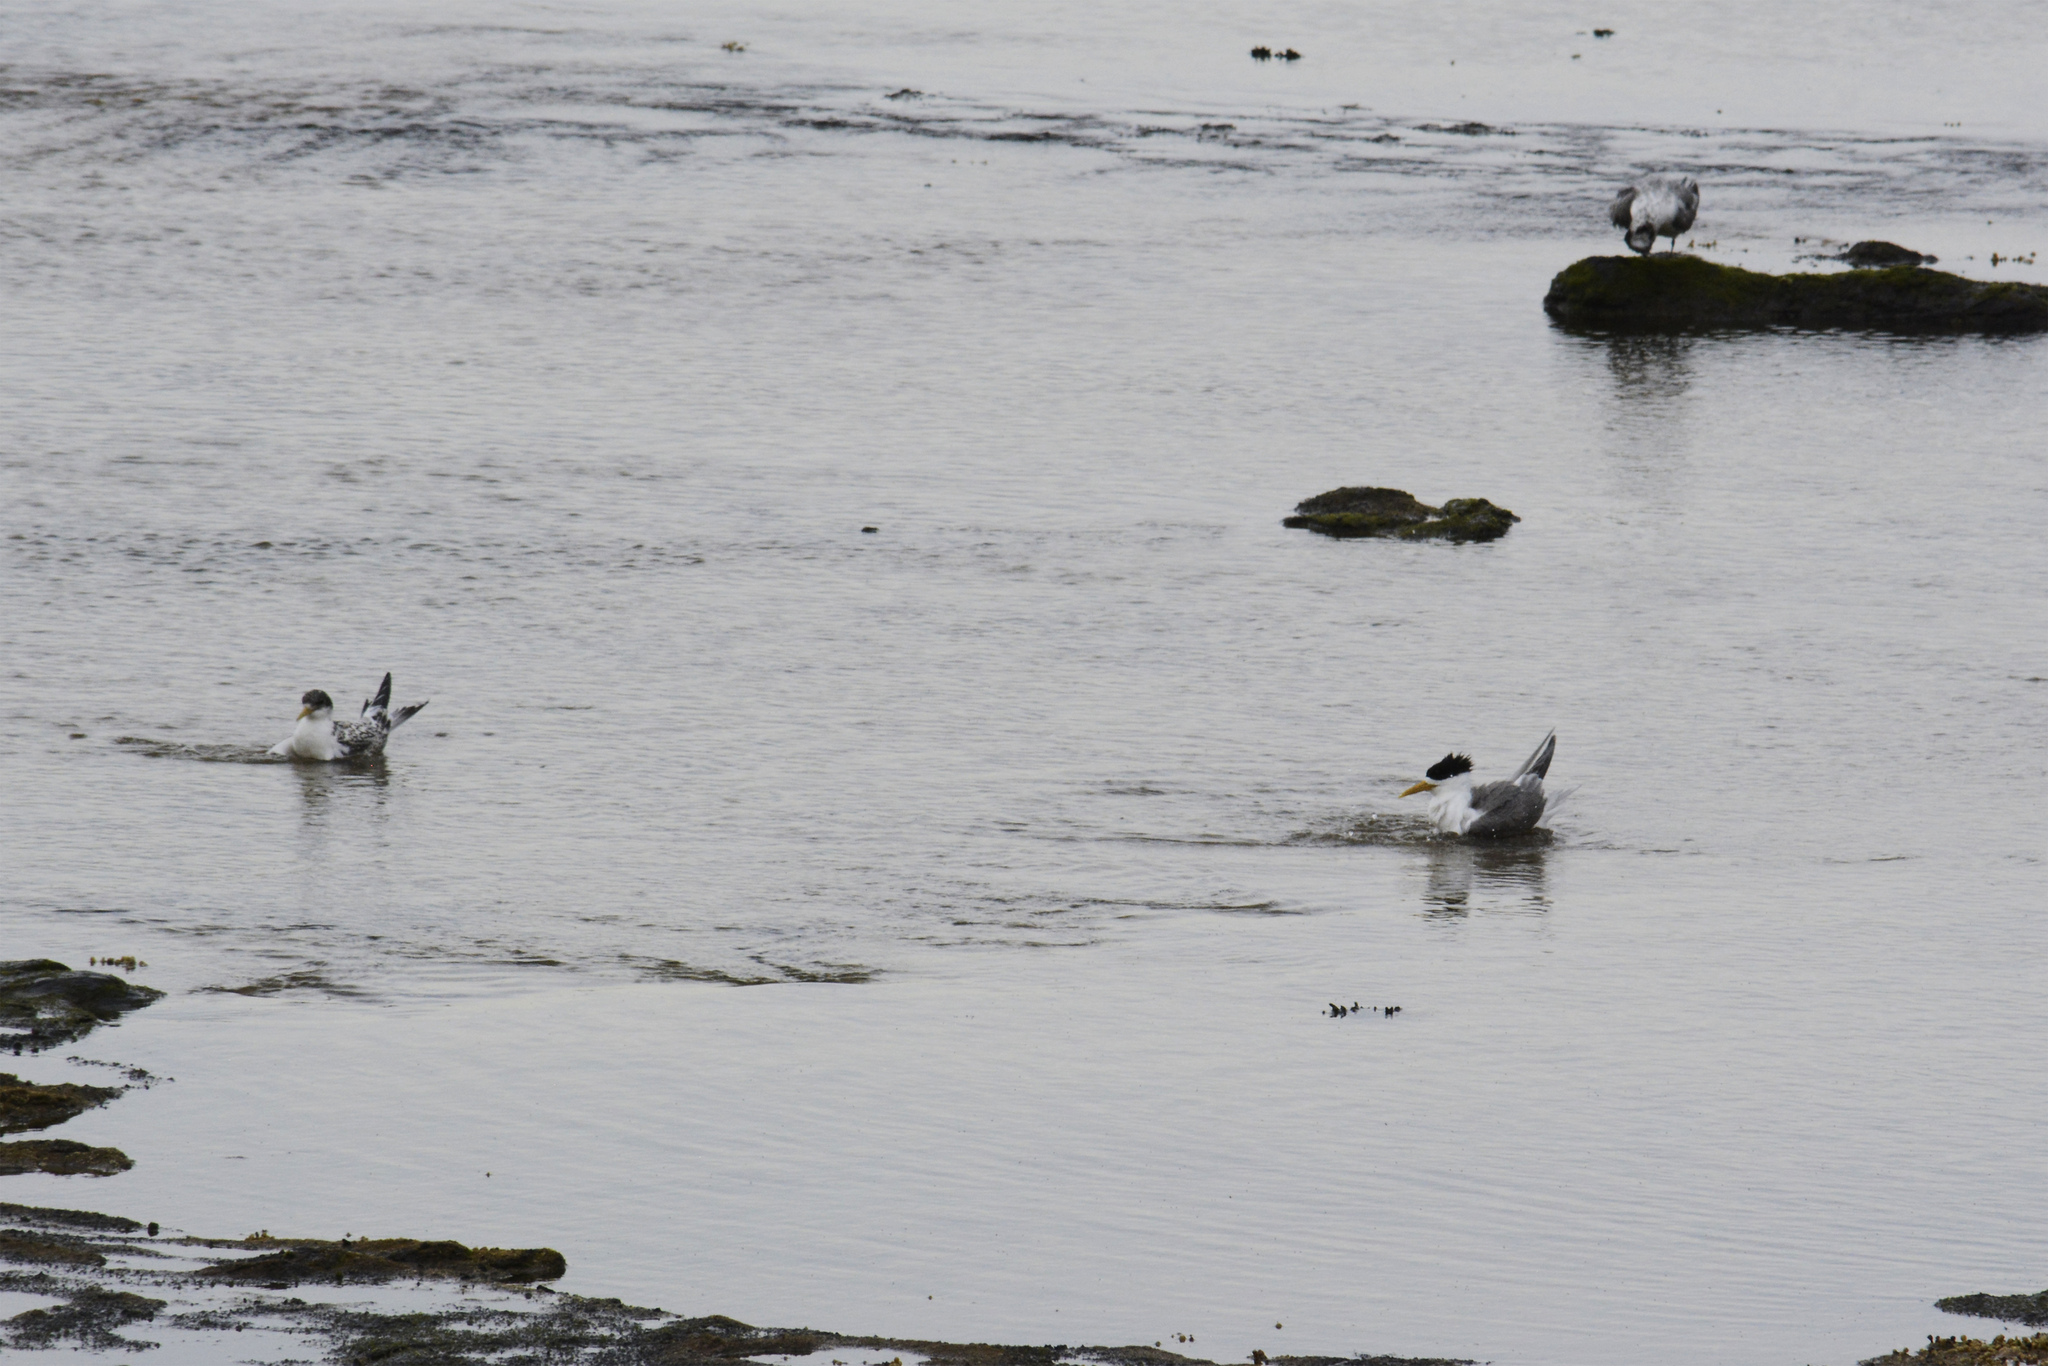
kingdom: Animalia
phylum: Chordata
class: Aves
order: Charadriiformes
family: Laridae
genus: Thalasseus
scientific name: Thalasseus bergii
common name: Greater crested tern
